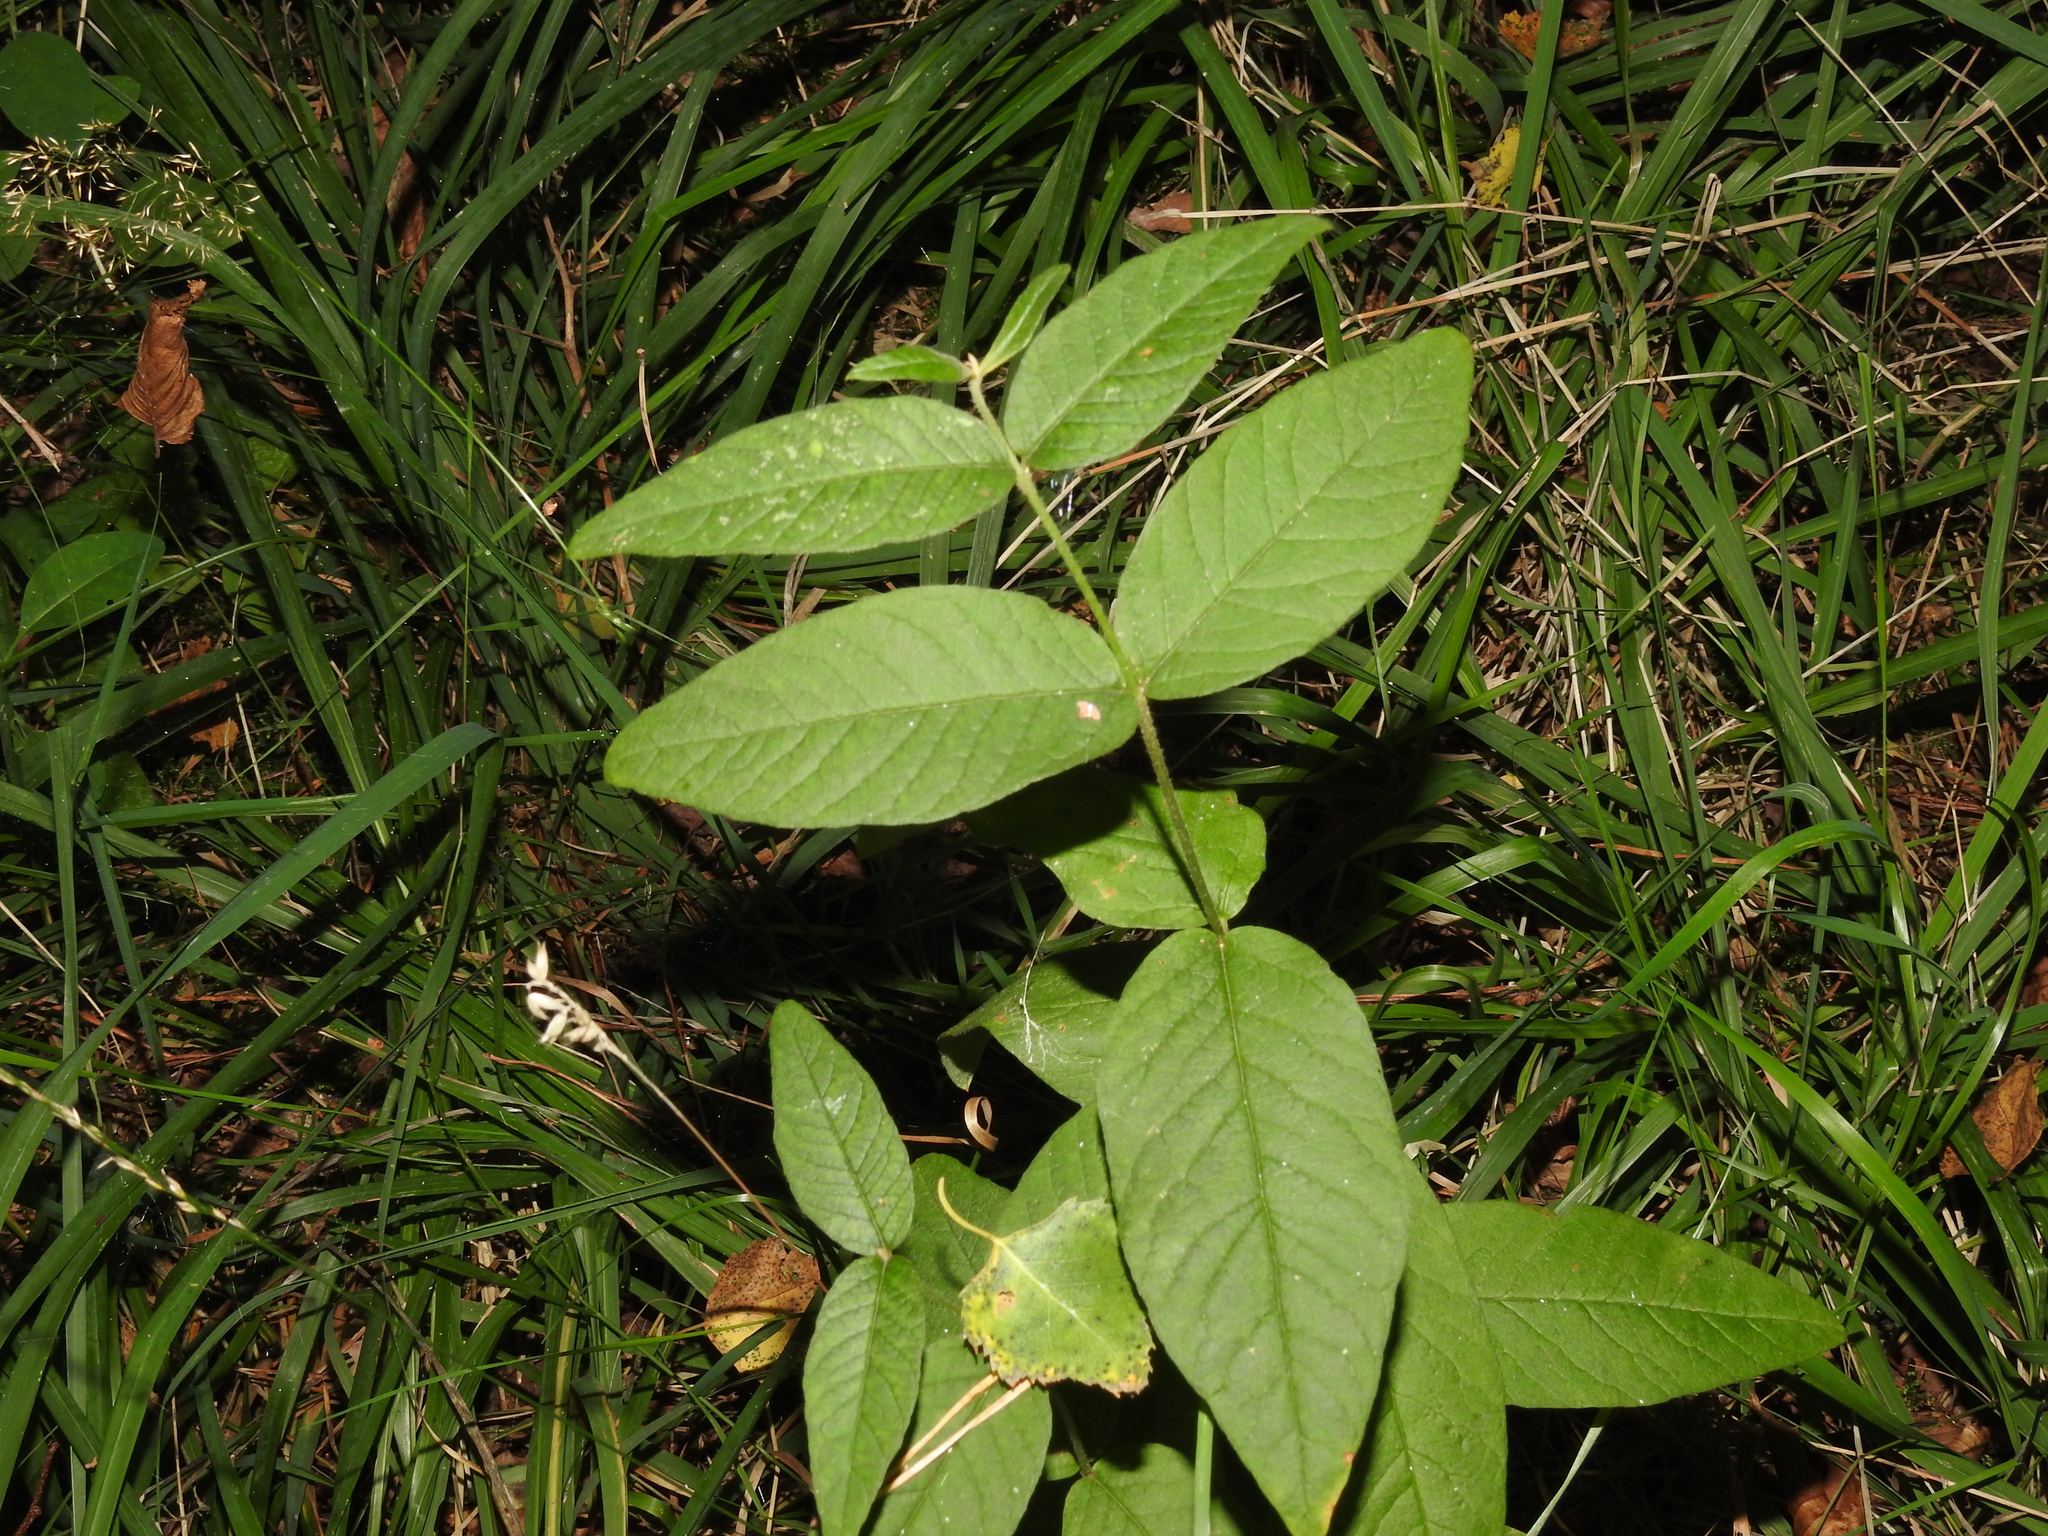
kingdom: Plantae
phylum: Tracheophyta
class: Magnoliopsida
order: Ericales
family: Primulaceae
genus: Lysimachia
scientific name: Lysimachia vulgaris
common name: Yellow loosestrife
